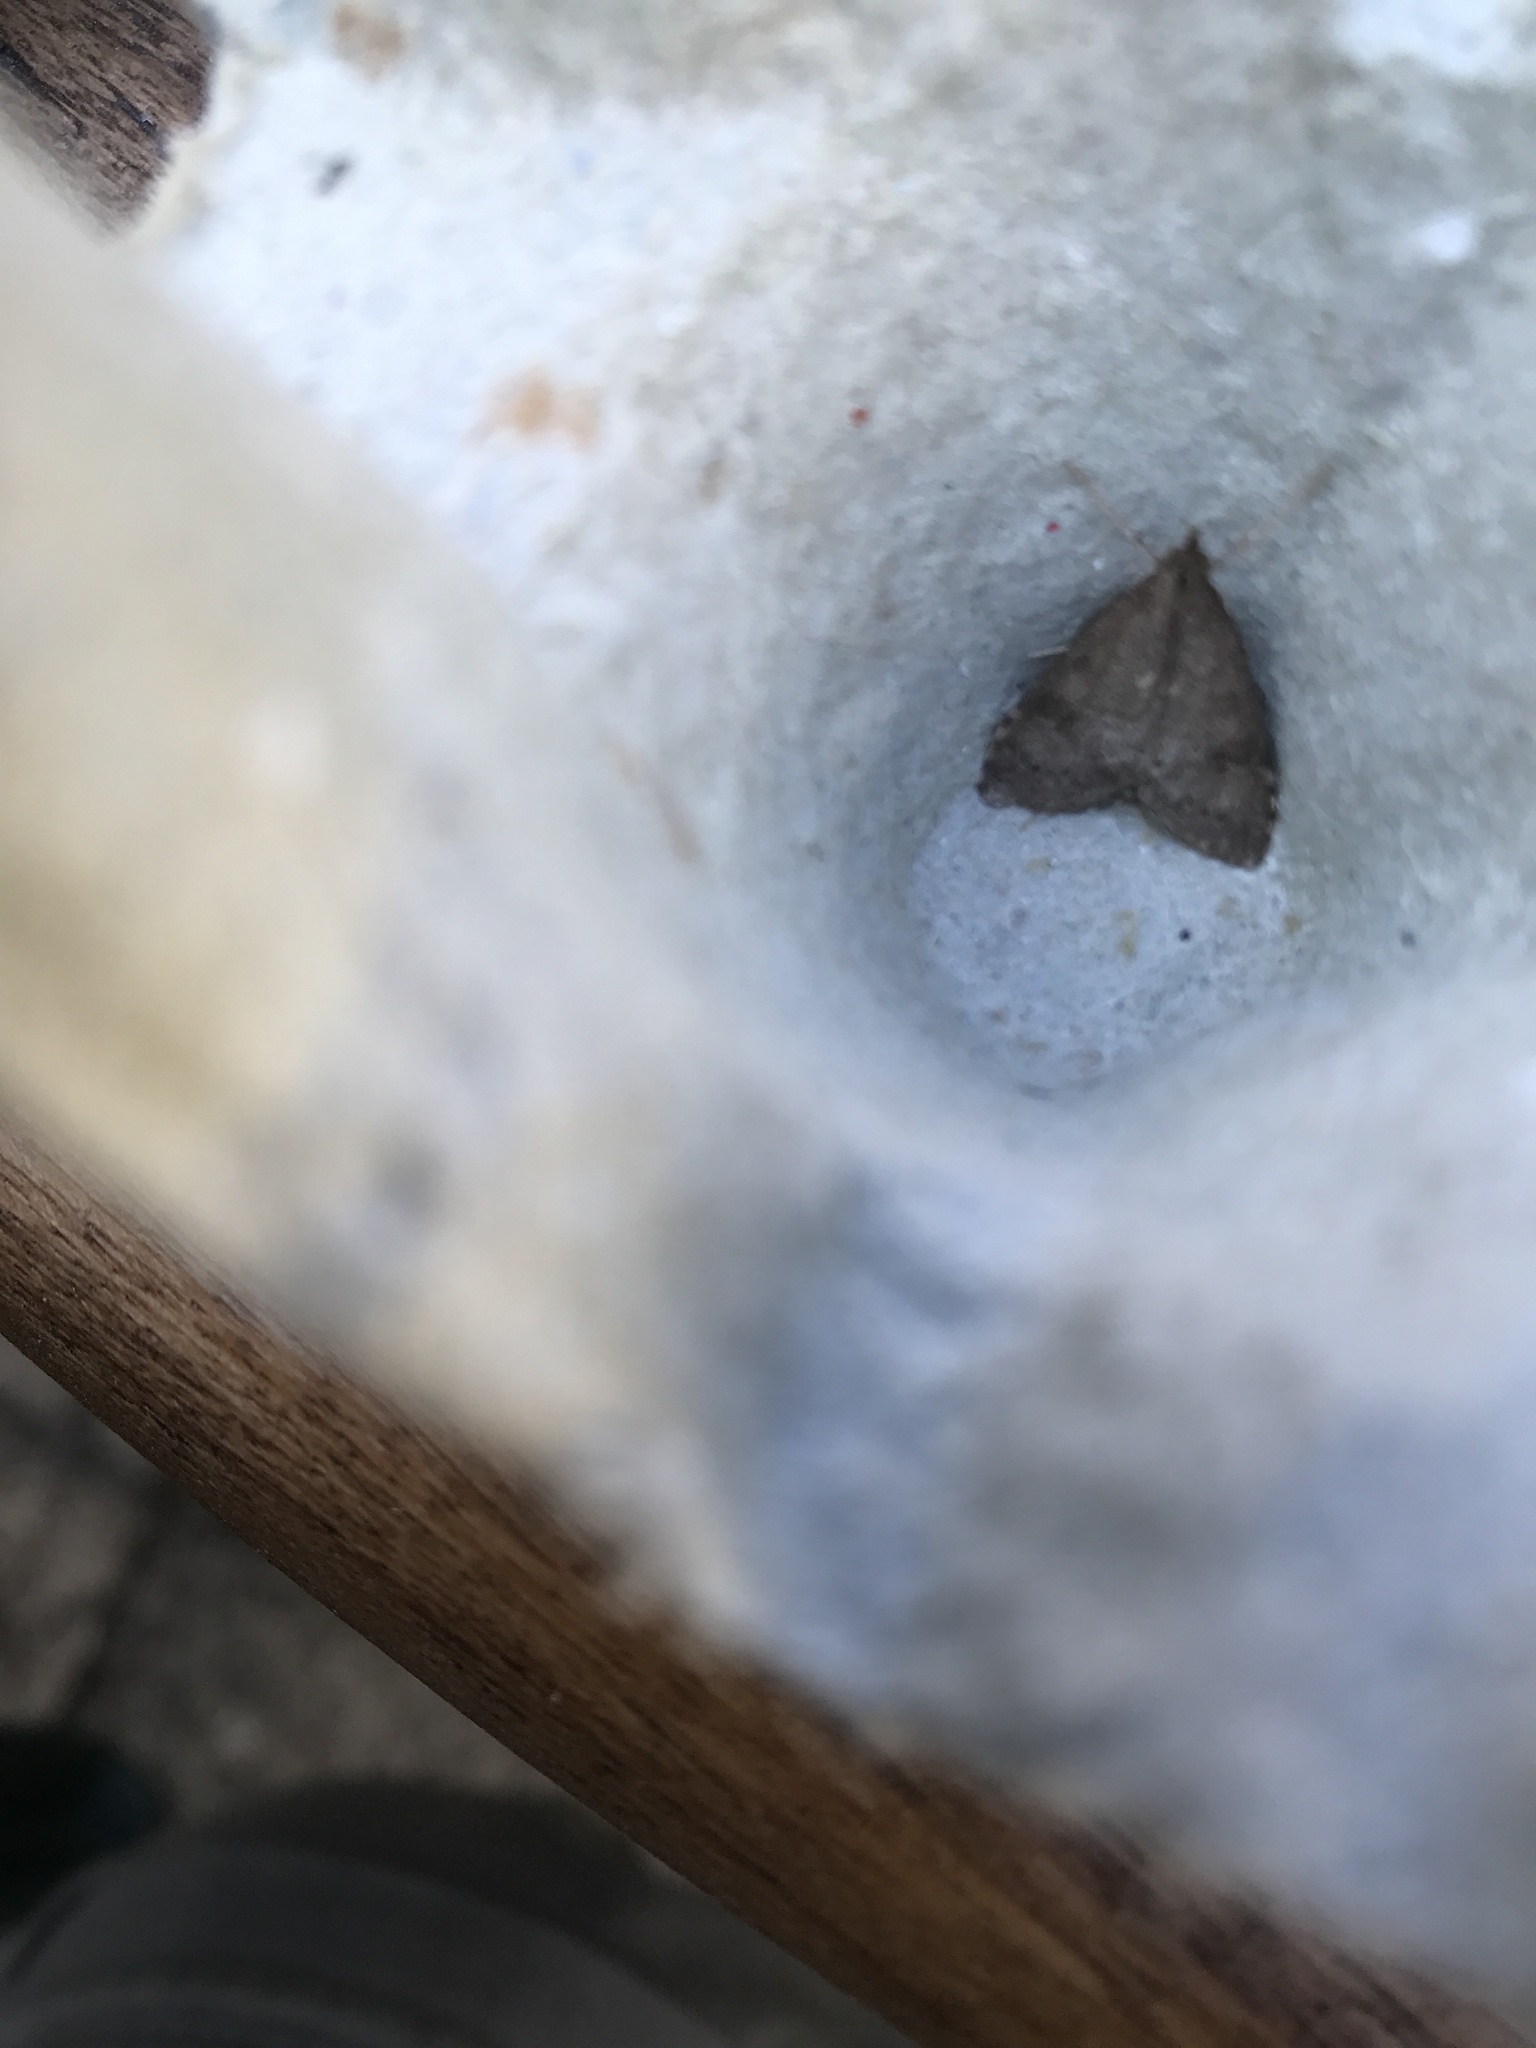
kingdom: Animalia
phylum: Arthropoda
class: Insecta
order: Lepidoptera
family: Crambidae
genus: Udea
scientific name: Udea prunalis
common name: Dusky pearl
